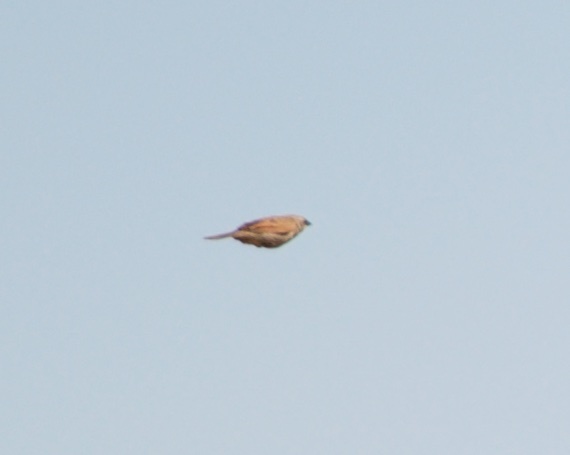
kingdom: Animalia
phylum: Chordata
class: Aves
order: Passeriformes
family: Icteridae
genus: Agelaioides
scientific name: Agelaioides badius
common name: Baywing
